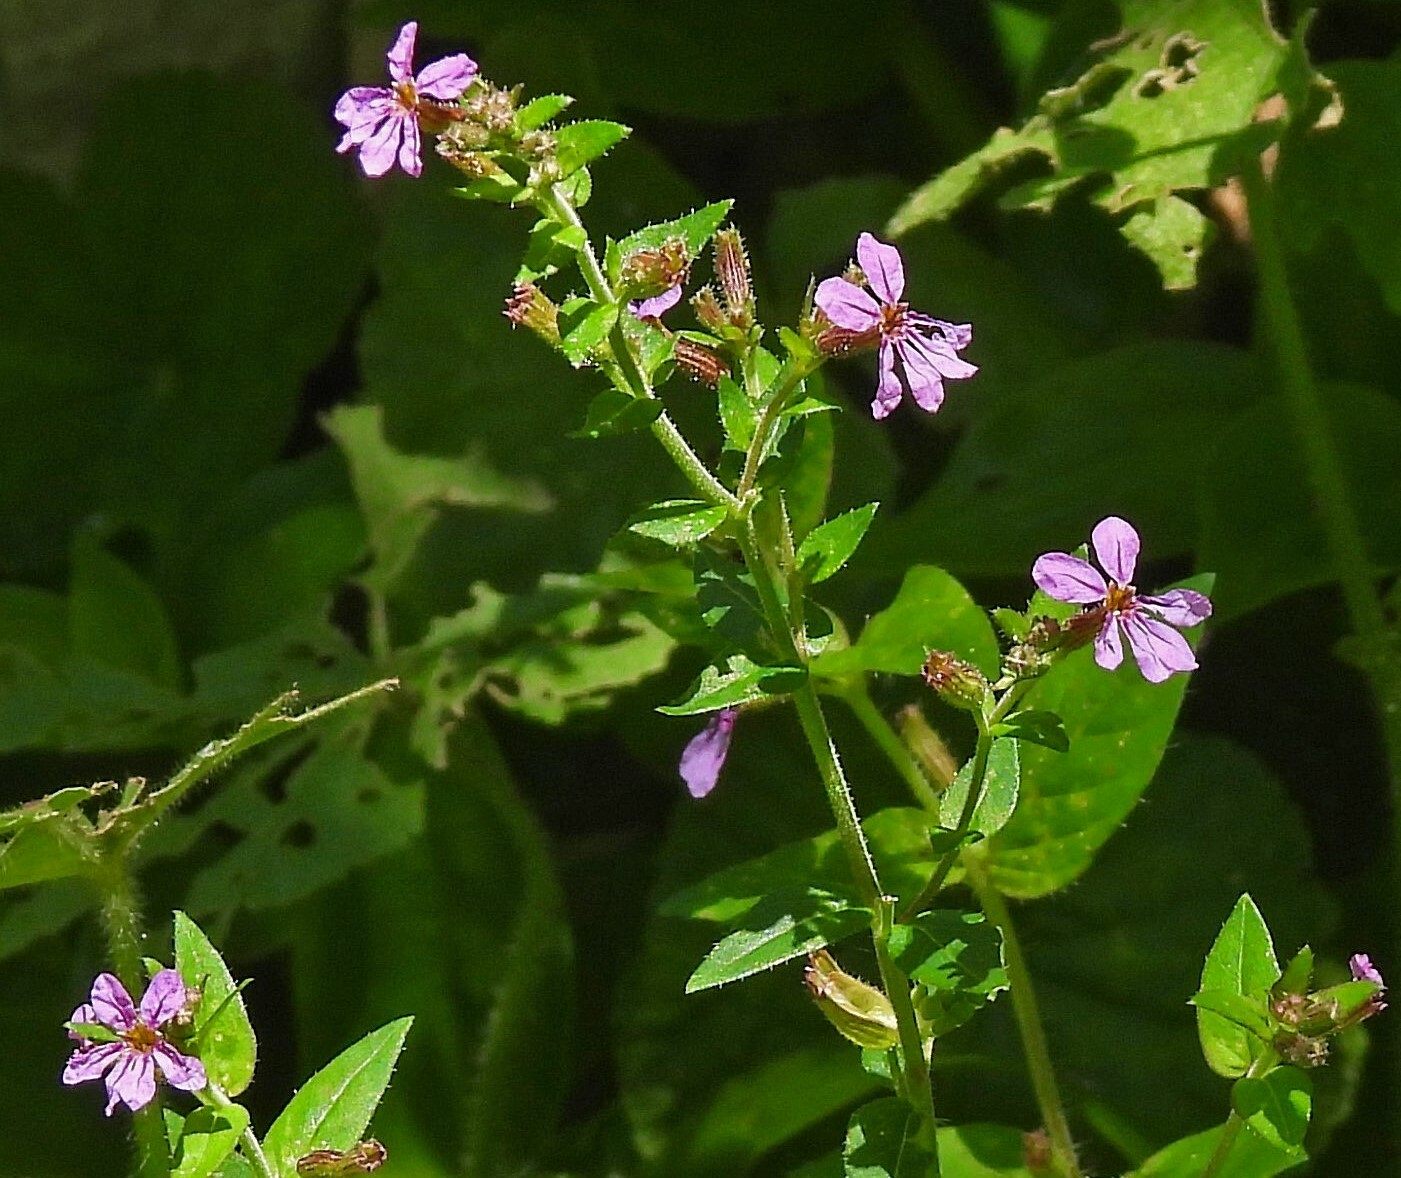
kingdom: Plantae
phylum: Tracheophyta
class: Magnoliopsida
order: Myrtales
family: Lythraceae
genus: Cuphea
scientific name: Cuphea glutinosa
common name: Sticky waxweed
